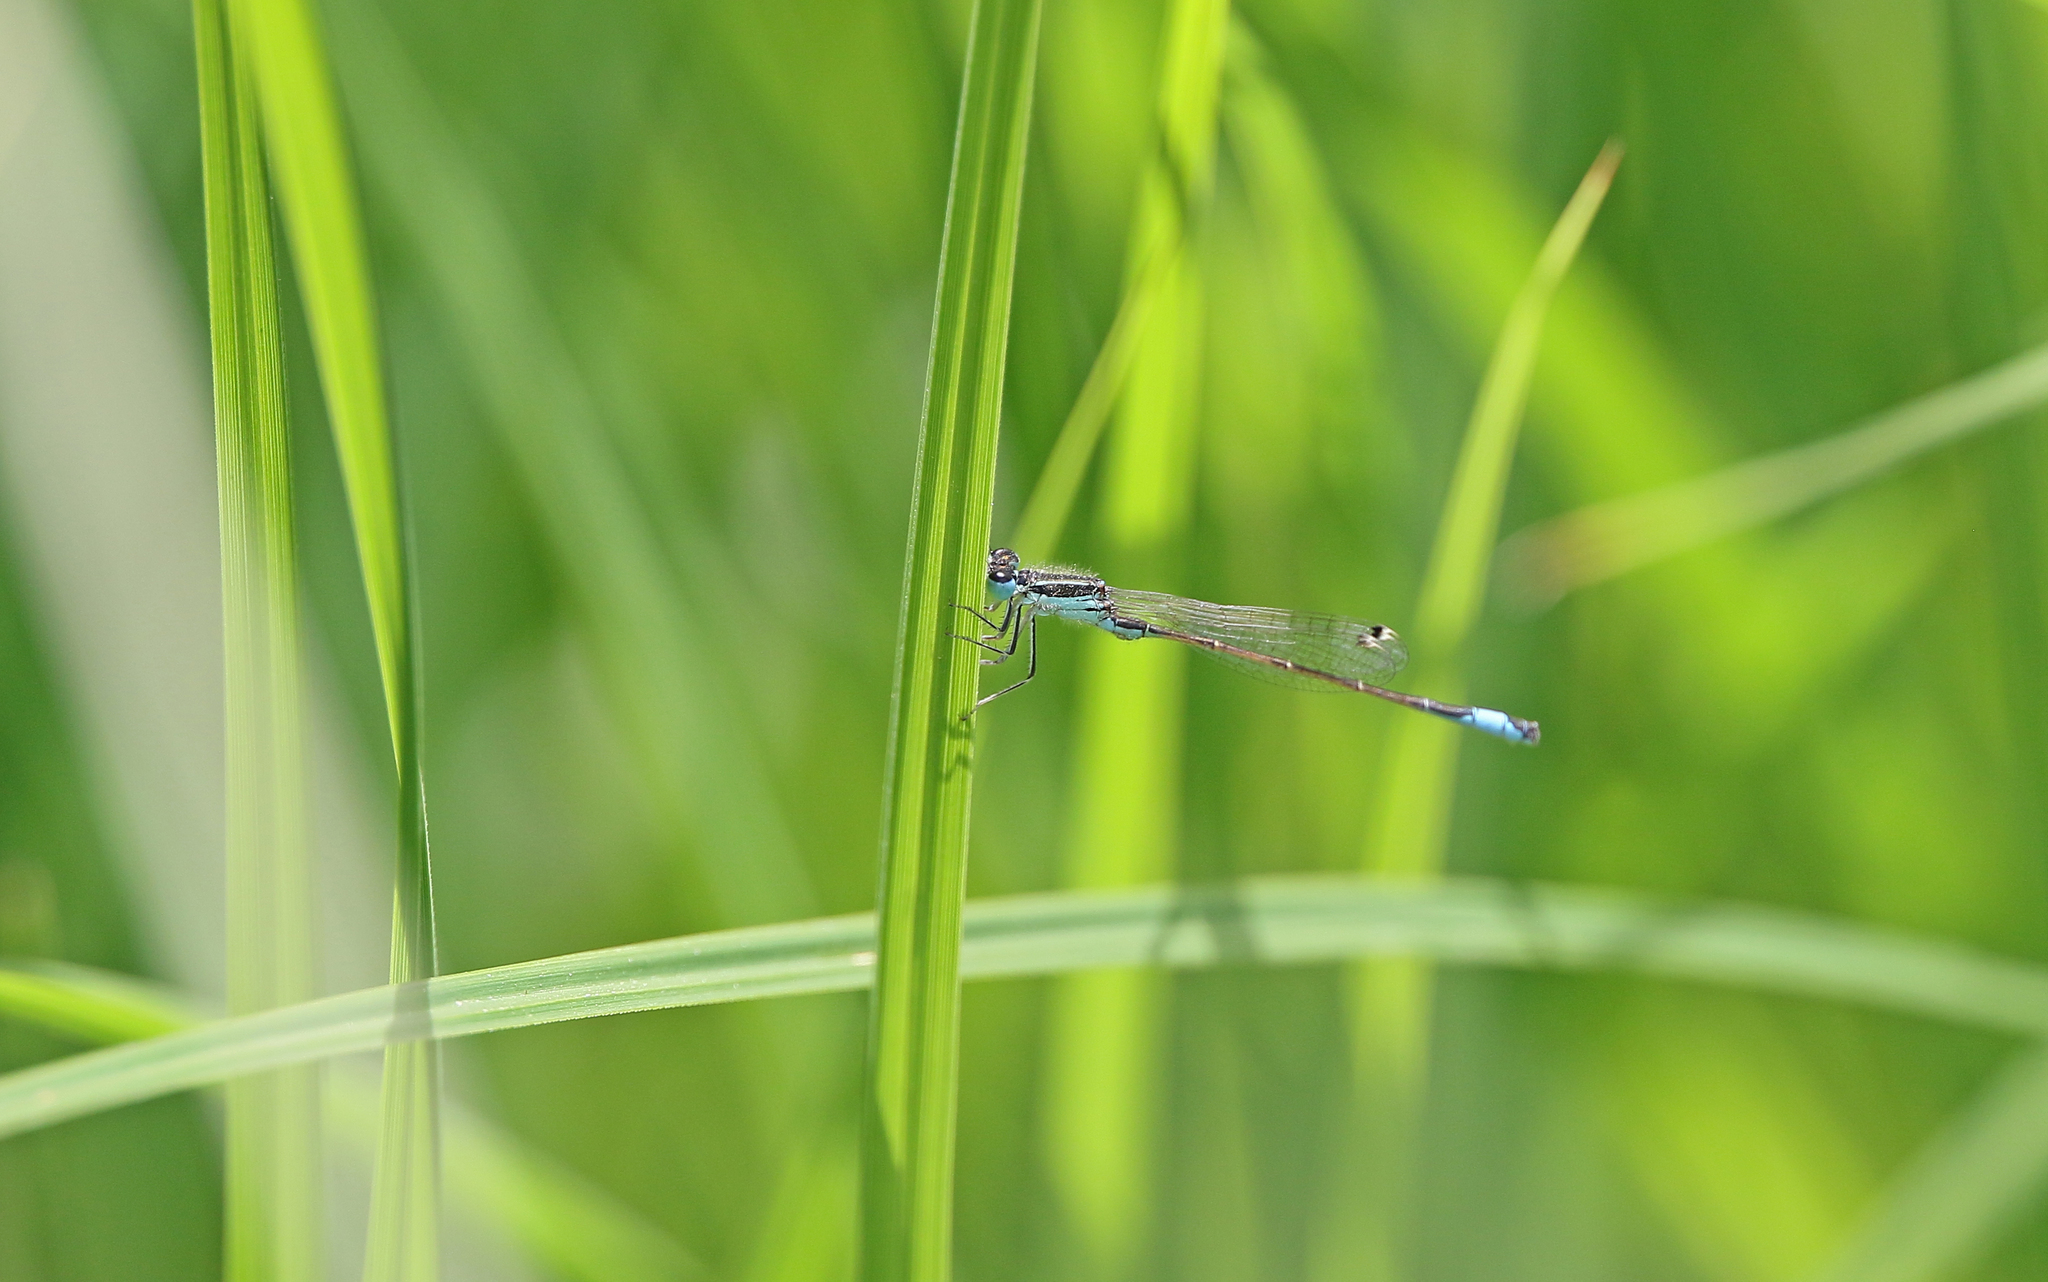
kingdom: Animalia
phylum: Arthropoda
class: Insecta
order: Odonata
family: Coenagrionidae
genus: Ischnura
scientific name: Ischnura graellsii
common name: Iberian bluetail
